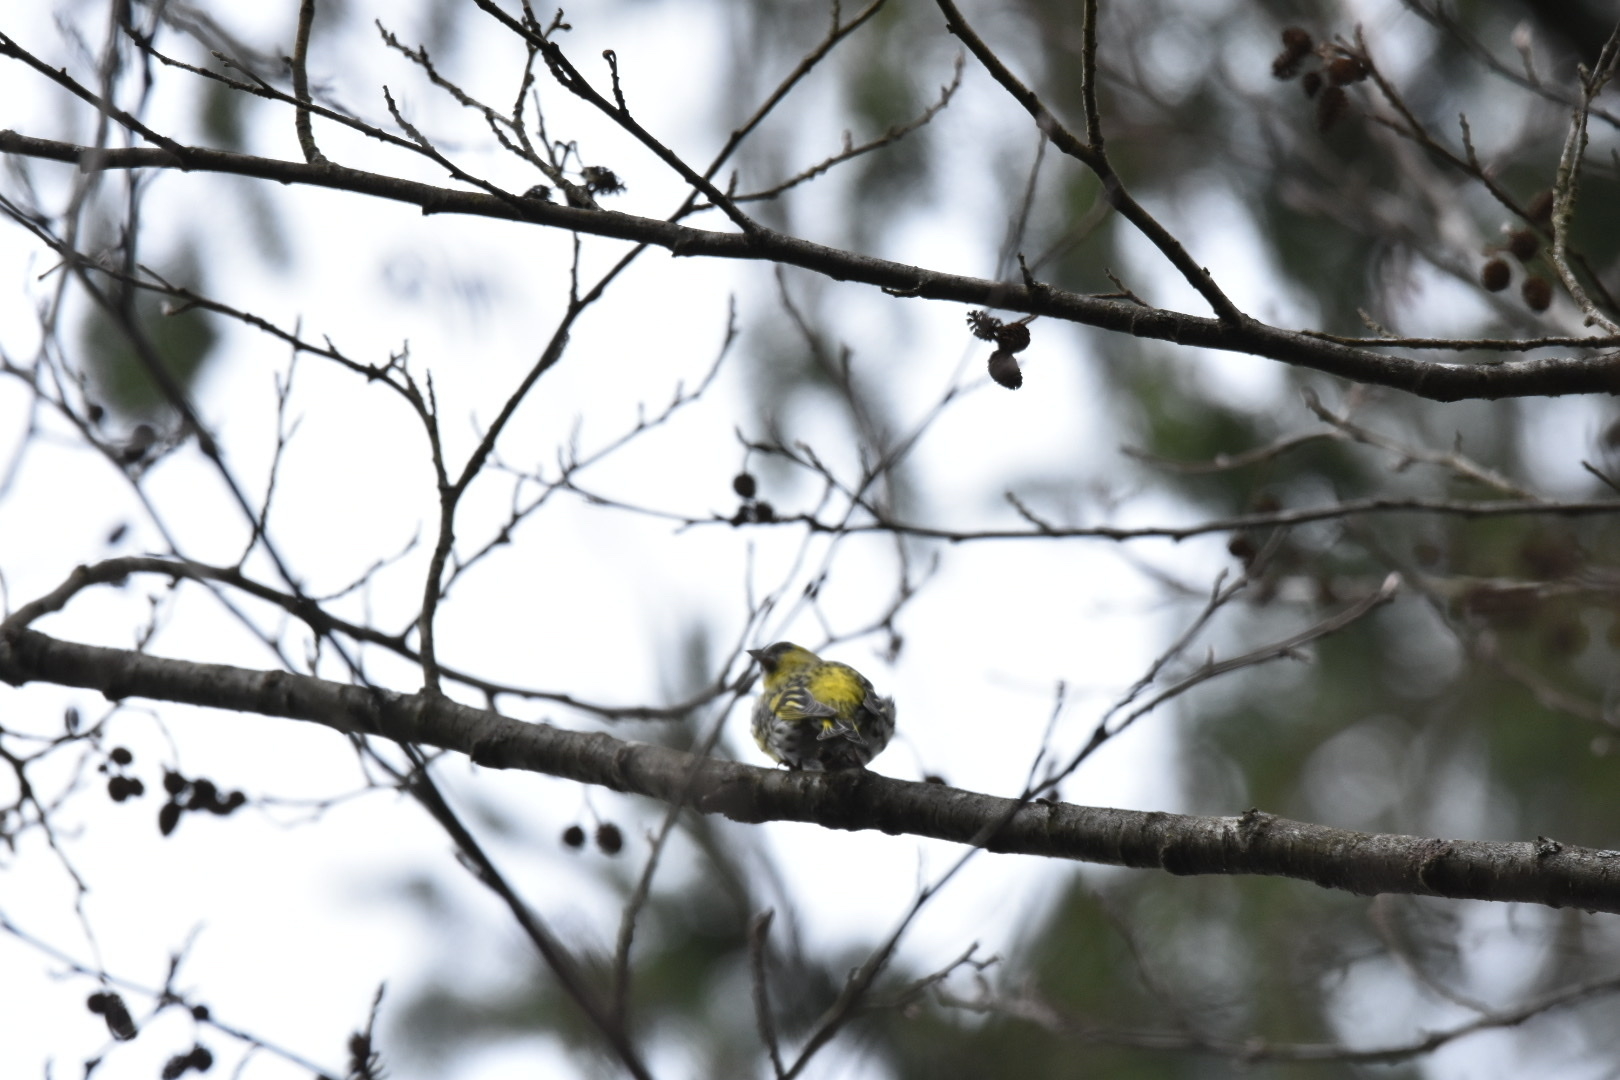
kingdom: Animalia
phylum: Chordata
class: Aves
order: Passeriformes
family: Fringillidae
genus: Spinus
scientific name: Spinus spinus
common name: Eurasian siskin
